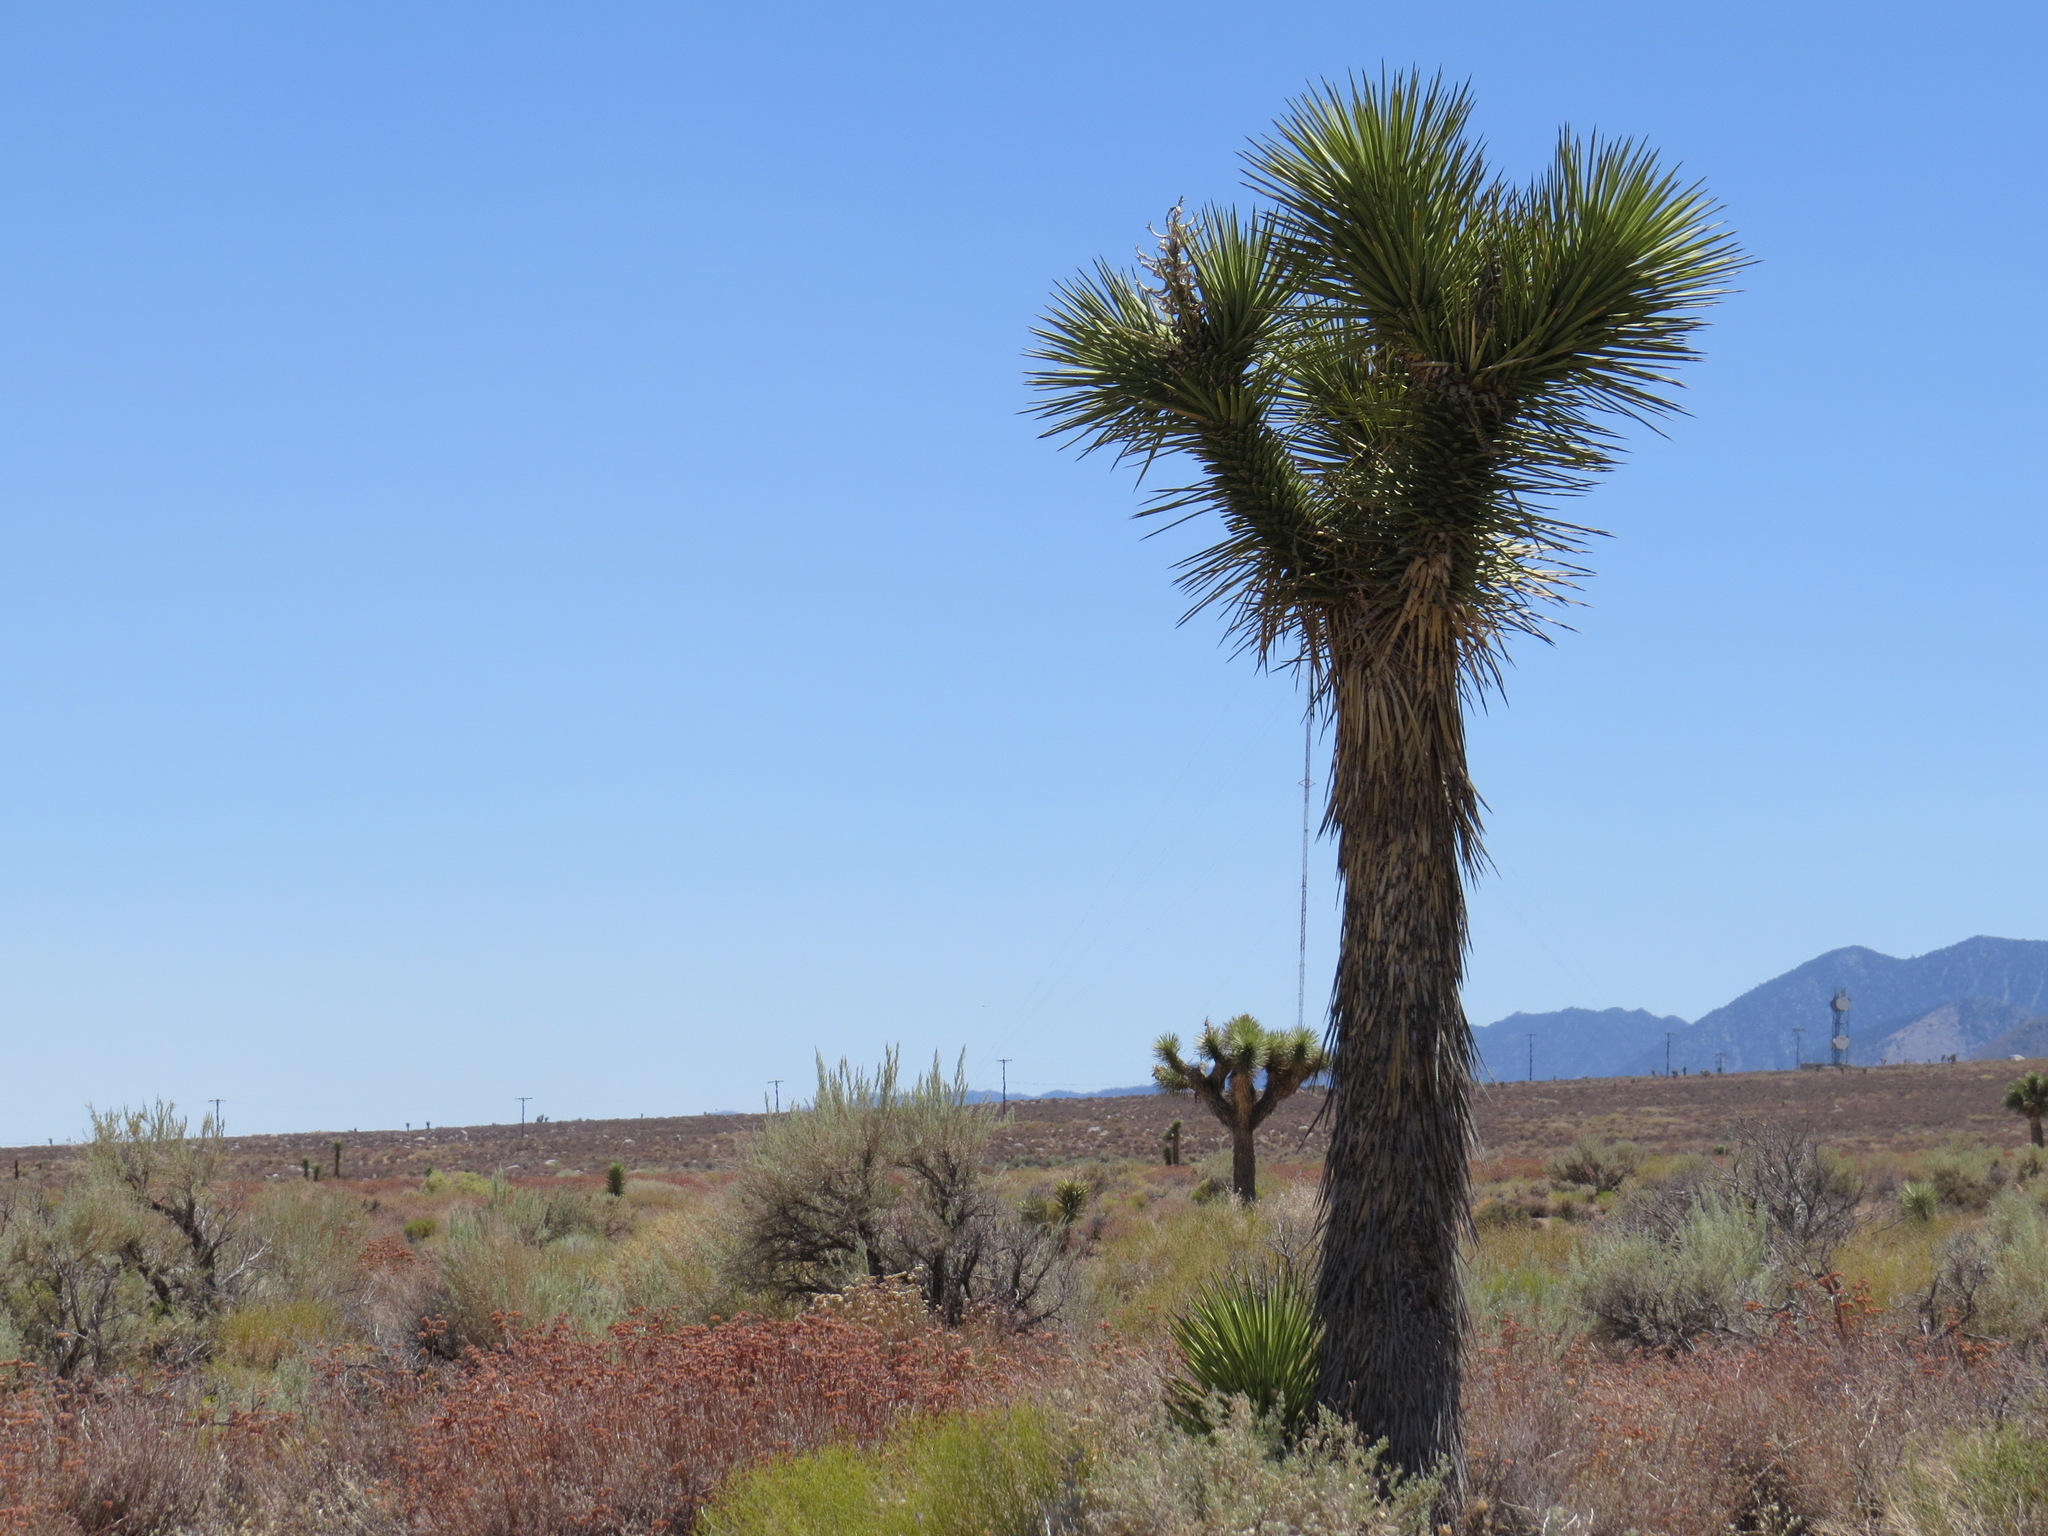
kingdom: Plantae
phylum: Tracheophyta
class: Liliopsida
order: Asparagales
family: Asparagaceae
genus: Yucca
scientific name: Yucca brevifolia
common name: Joshua tree
